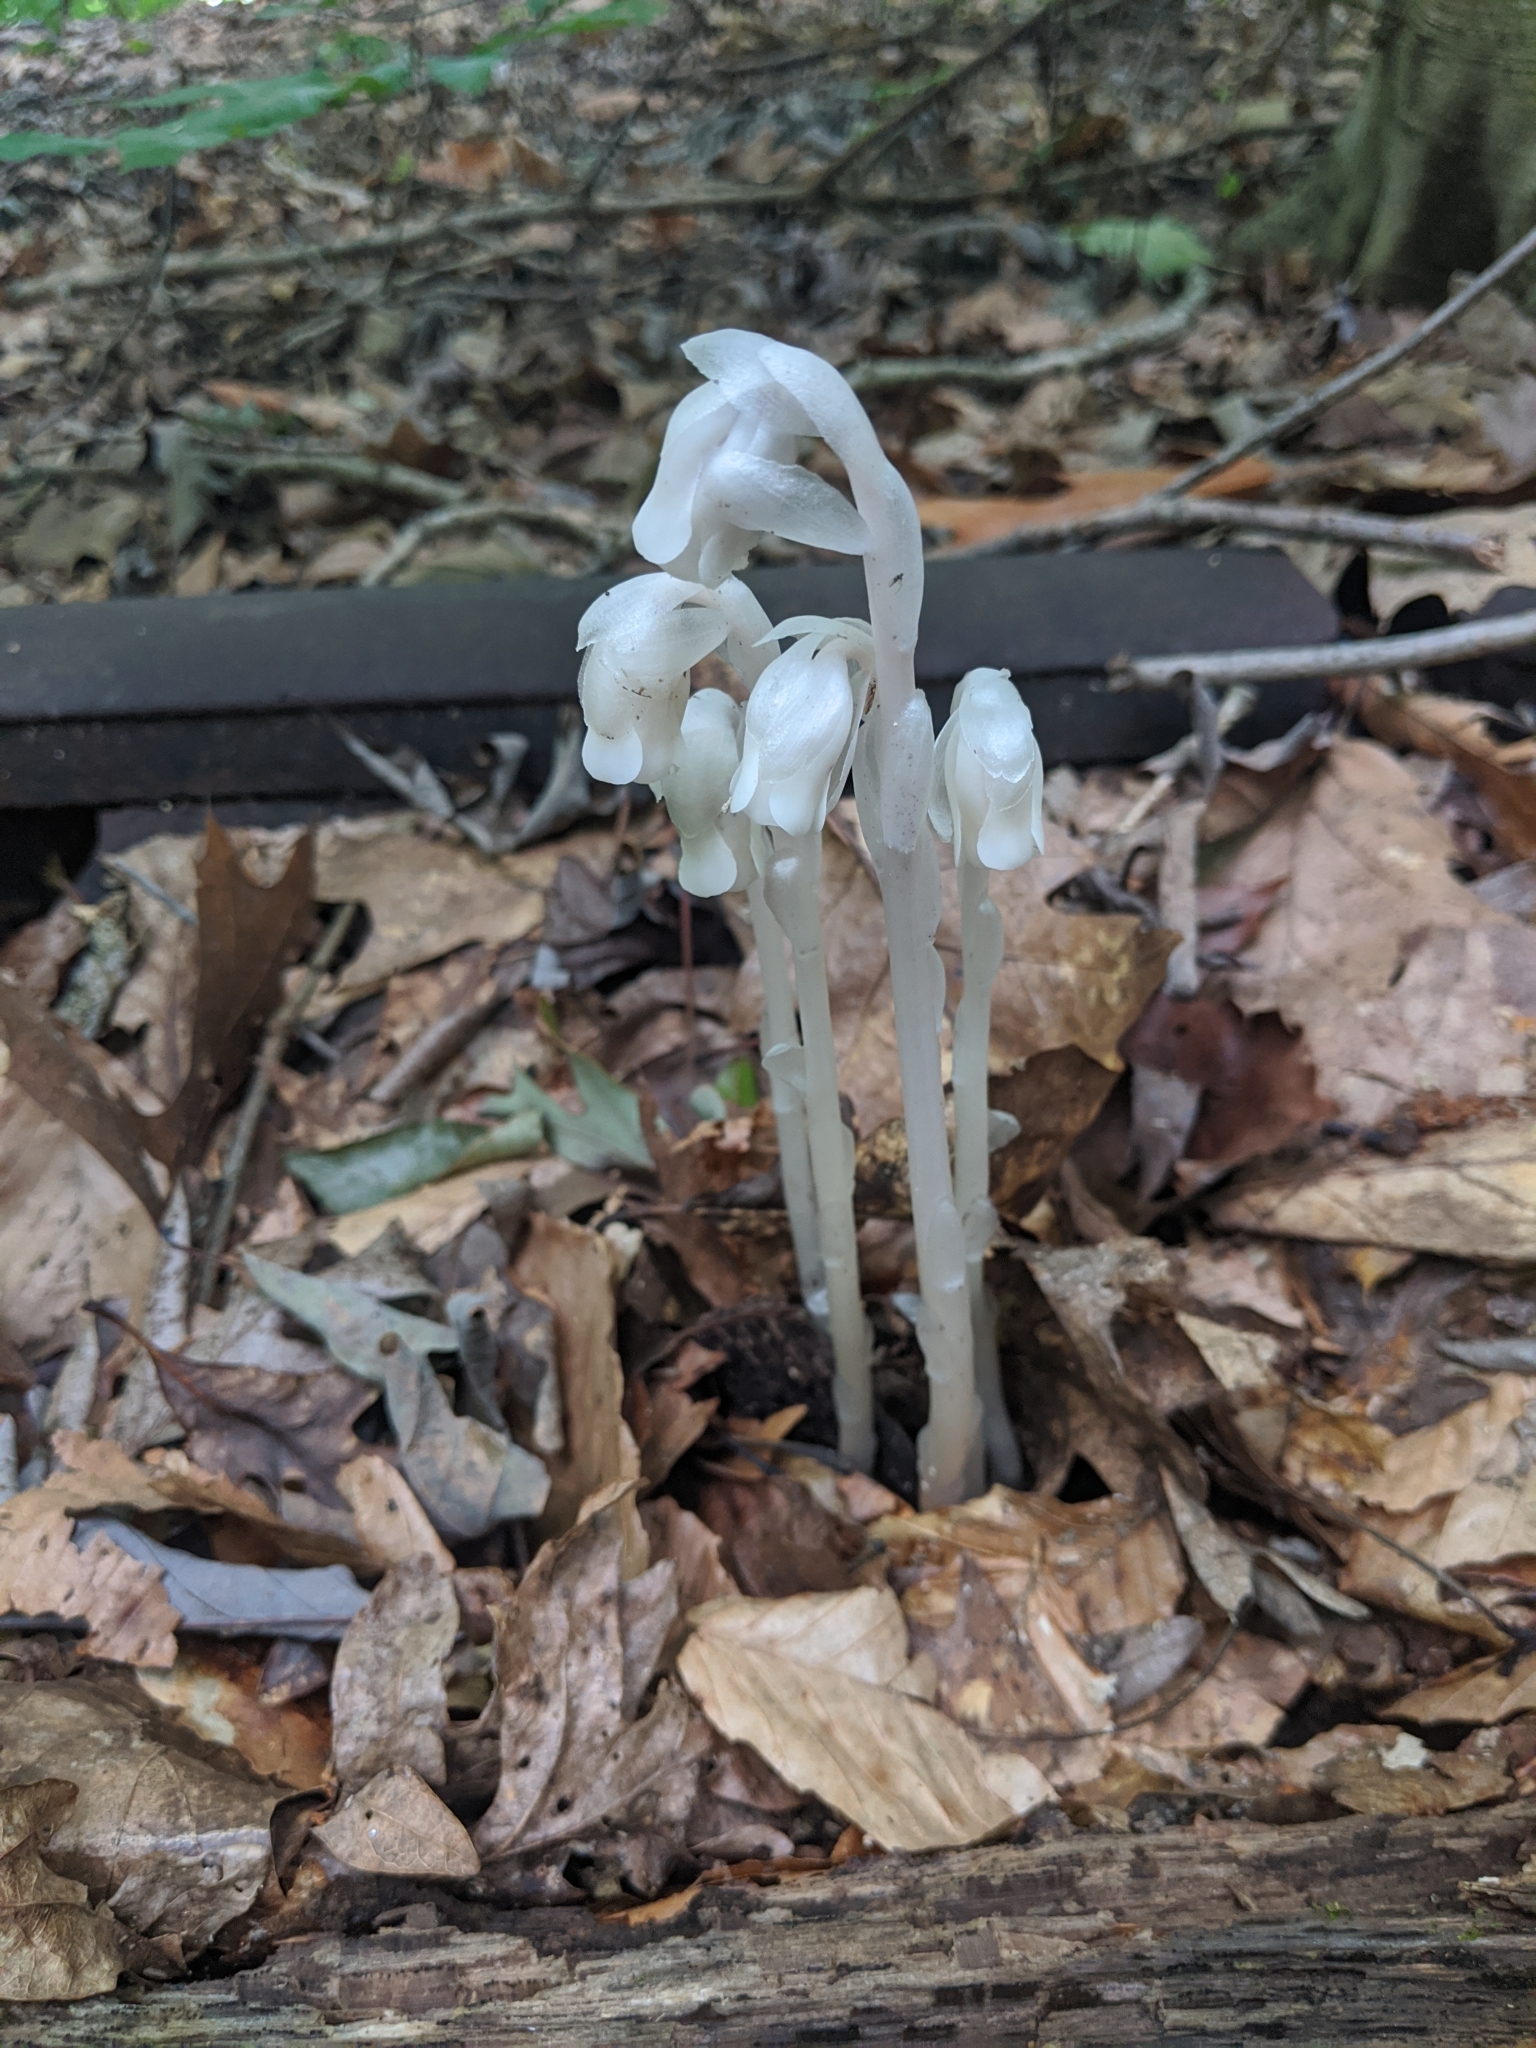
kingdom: Plantae
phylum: Tracheophyta
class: Magnoliopsida
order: Ericales
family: Ericaceae
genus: Monotropa
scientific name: Monotropa uniflora
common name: Convulsion root
